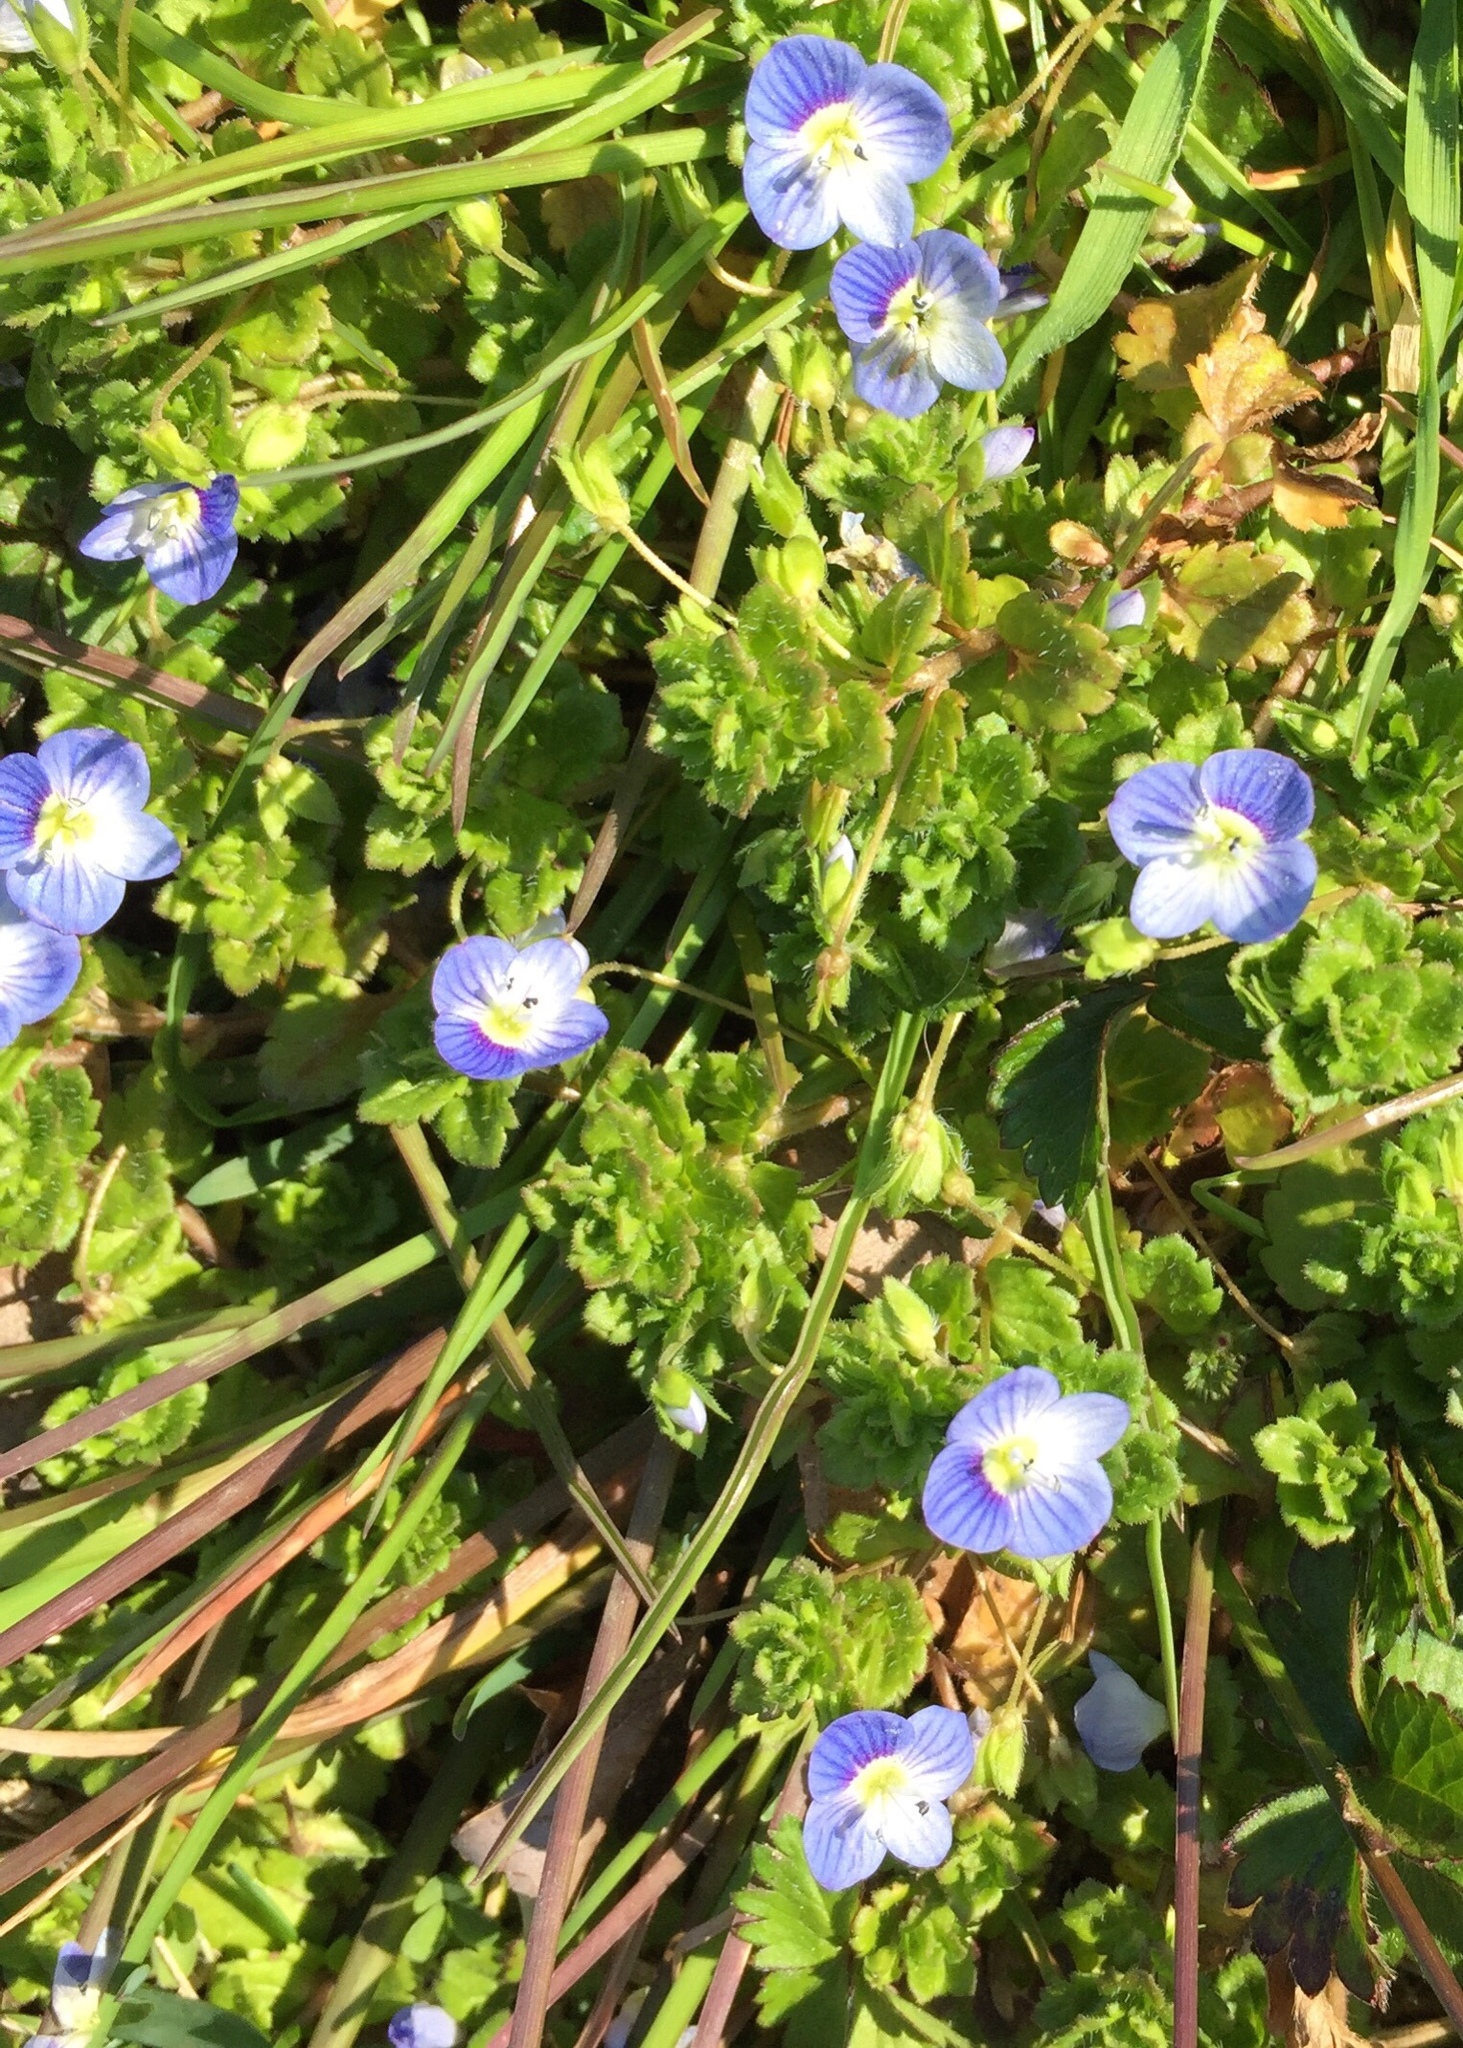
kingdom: Plantae
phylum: Tracheophyta
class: Magnoliopsida
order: Lamiales
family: Plantaginaceae
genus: Veronica
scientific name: Veronica persica
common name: Common field-speedwell
